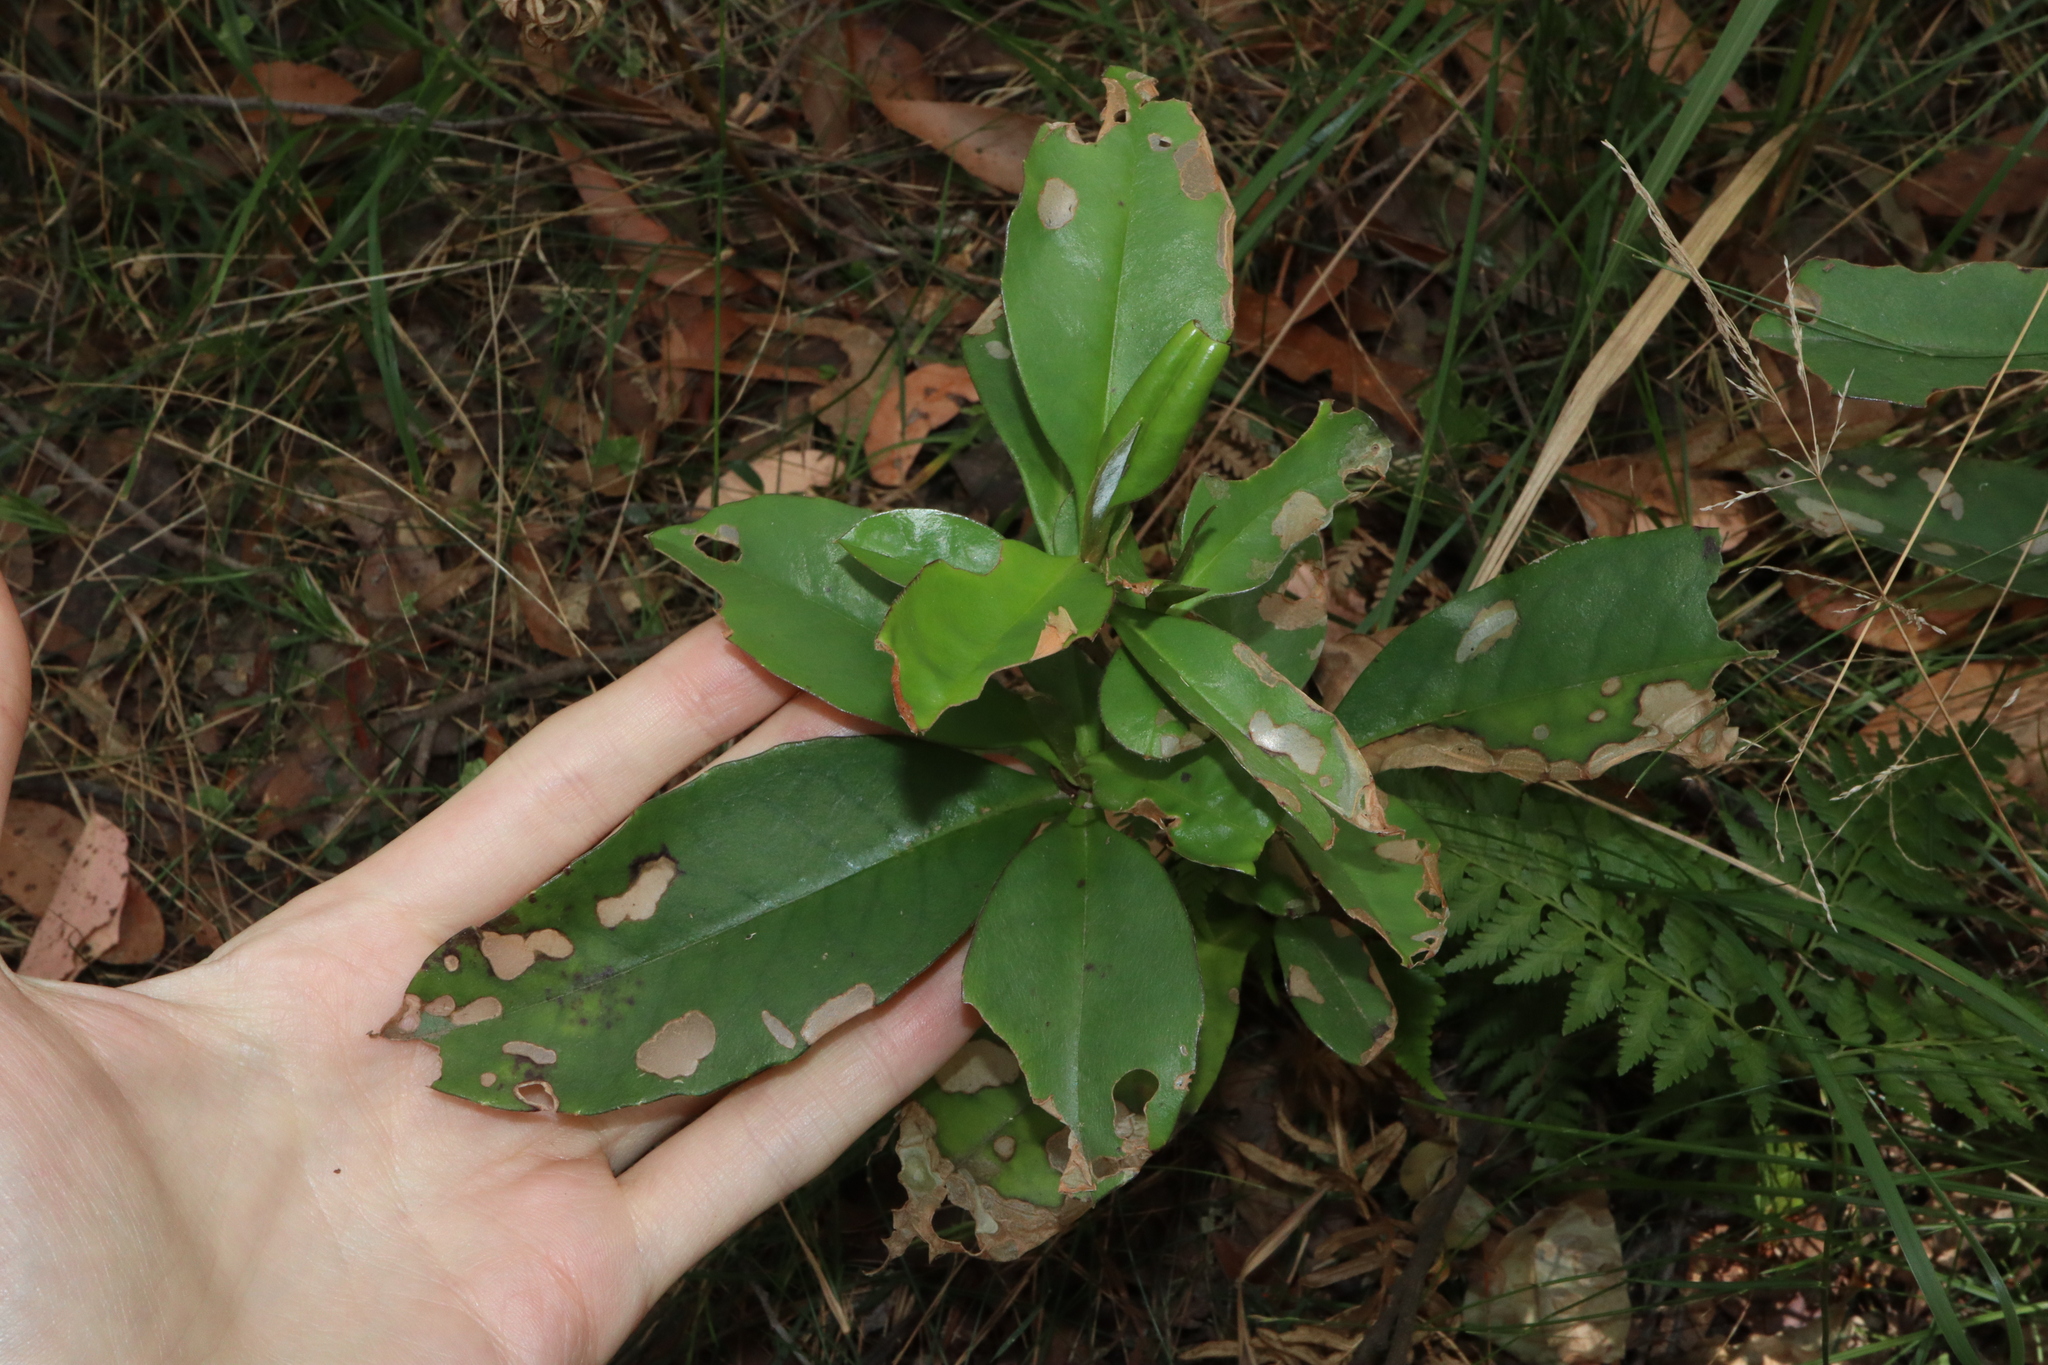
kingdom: Plantae
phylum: Tracheophyta
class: Magnoliopsida
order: Dilleniales
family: Dilleniaceae
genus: Hibbertia
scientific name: Hibbertia scandens
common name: Climbing guinea-flower
